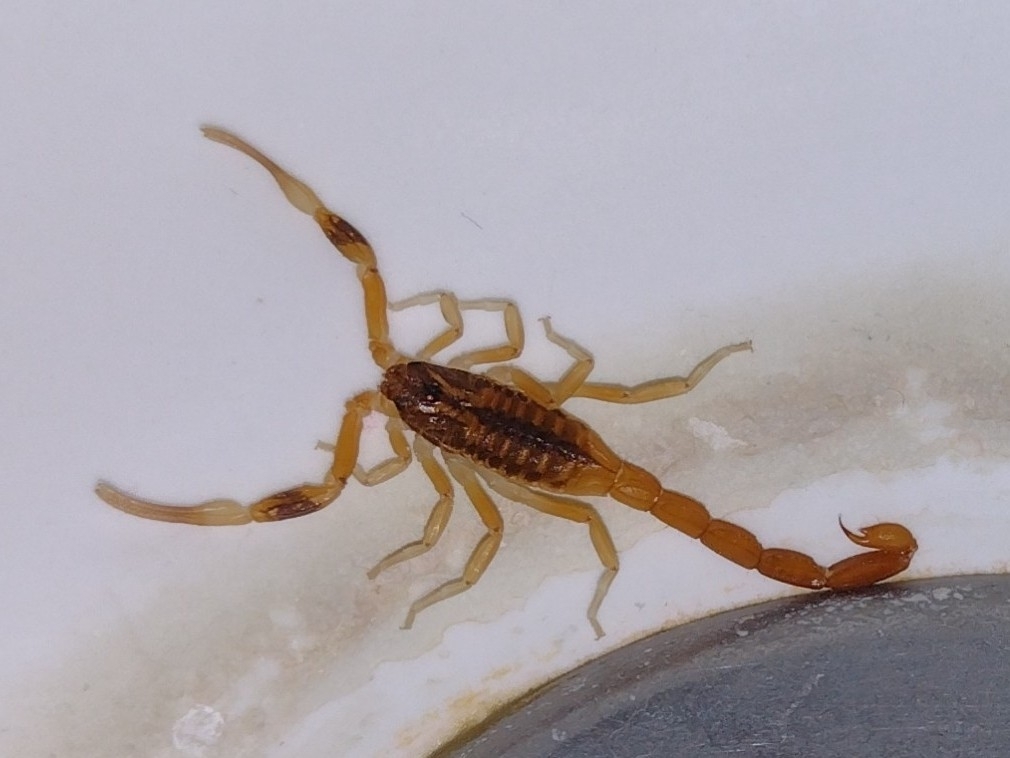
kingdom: Animalia
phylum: Arthropoda
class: Arachnida
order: Scorpiones
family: Buthidae
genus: Tityus
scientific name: Tityus carrilloi
